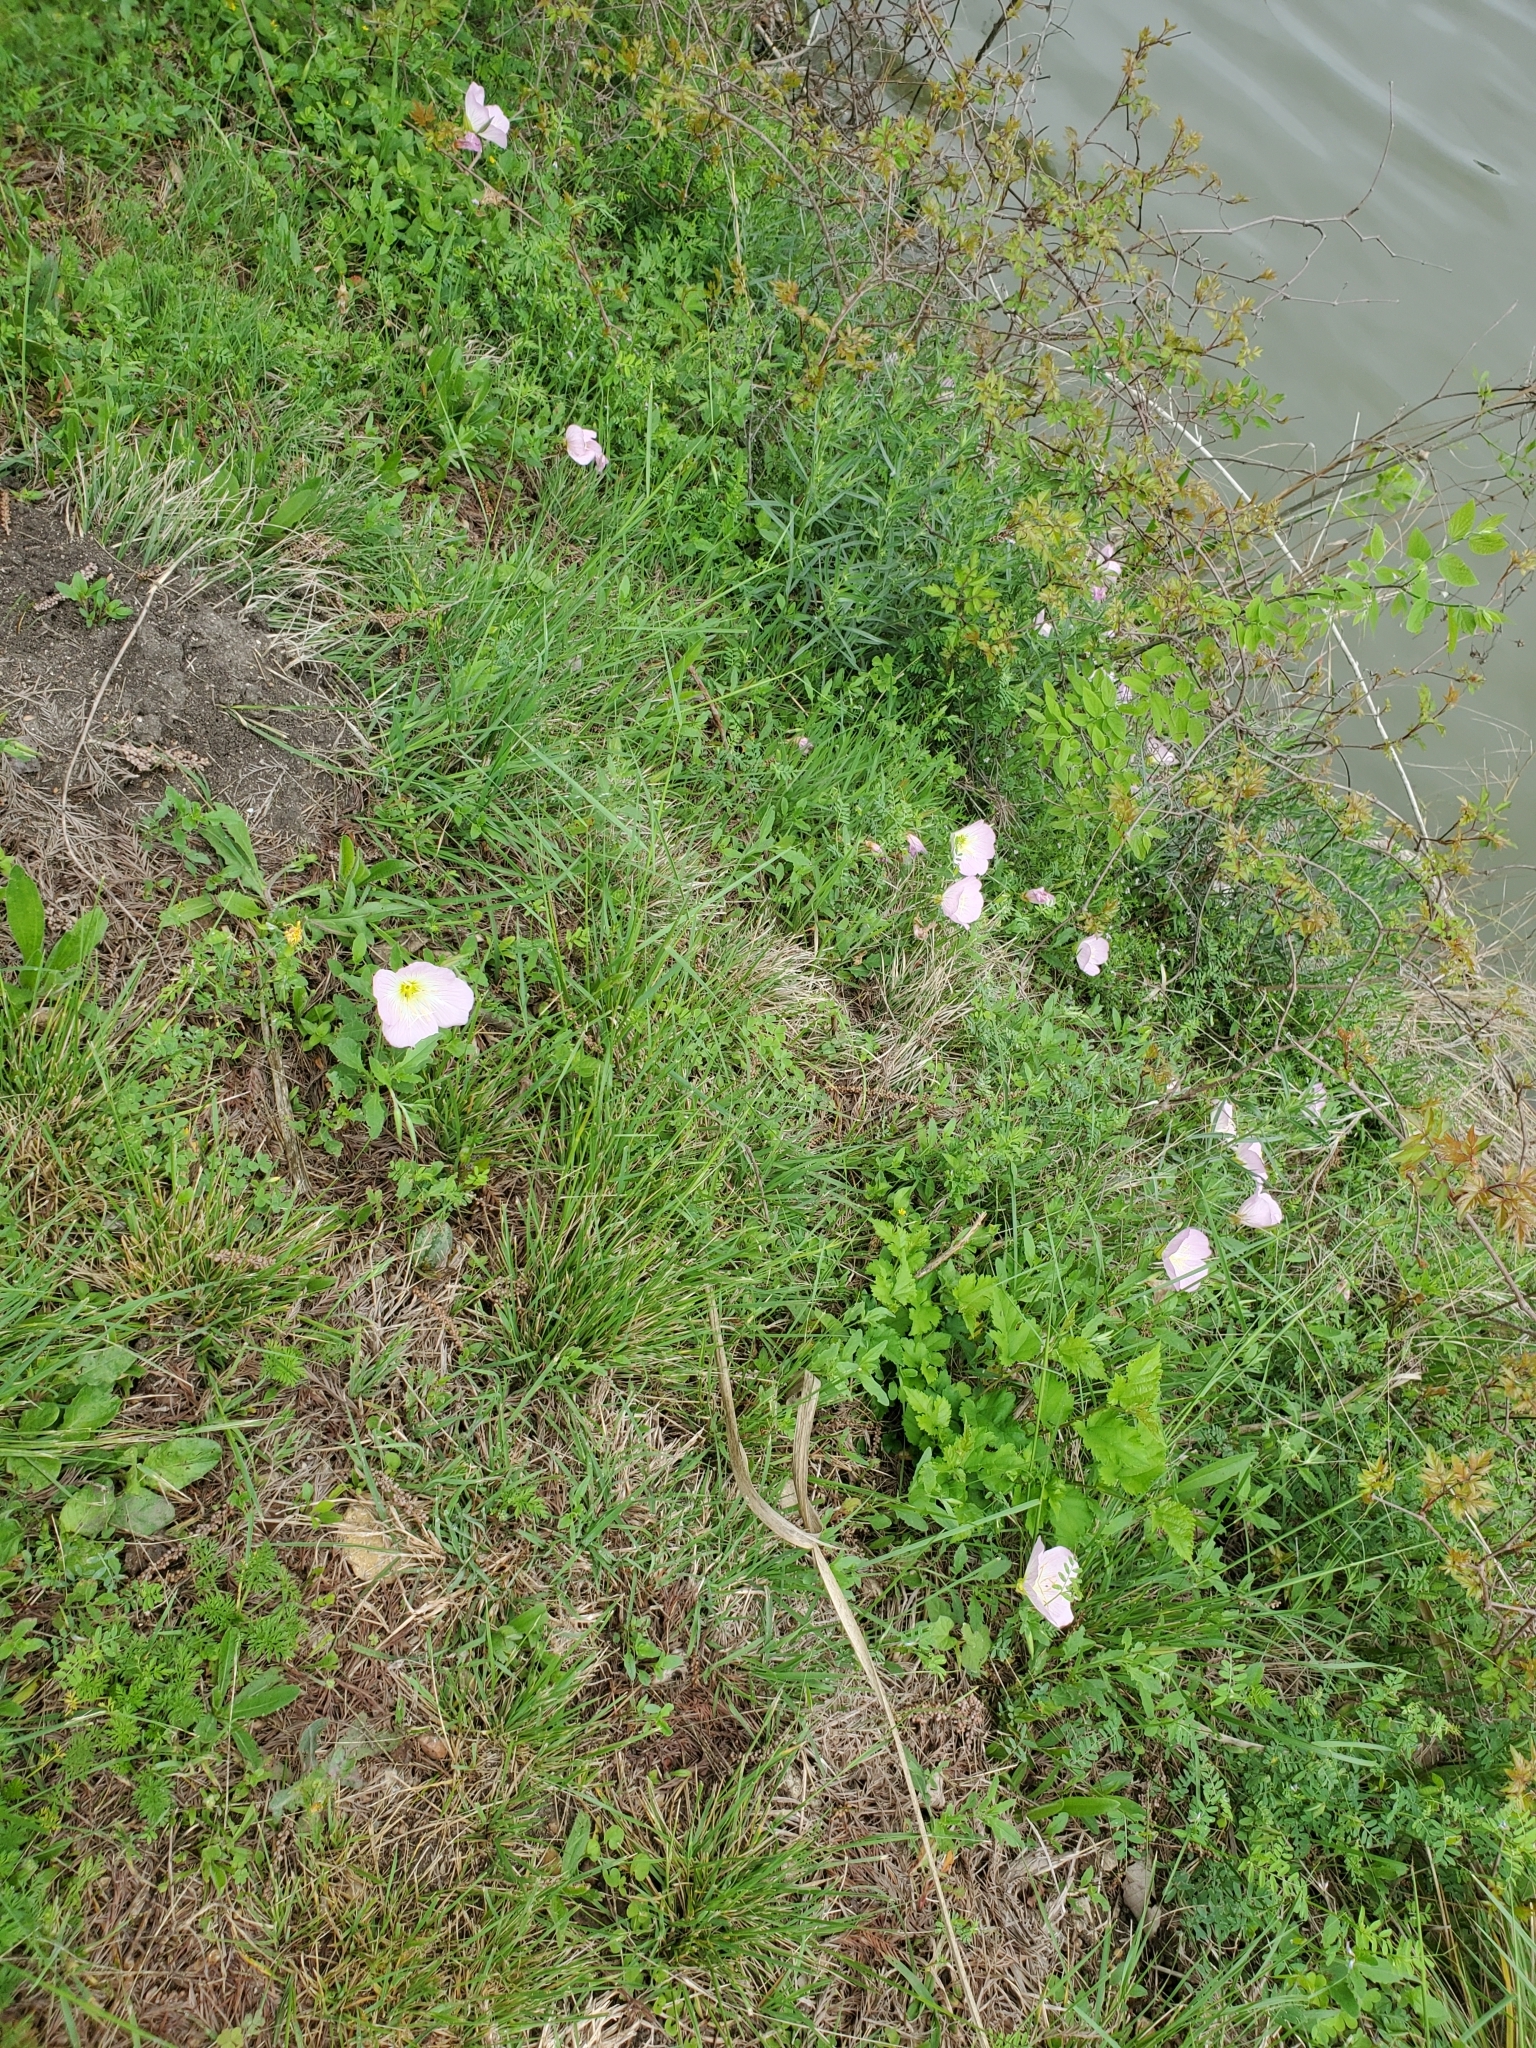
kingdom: Plantae
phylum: Tracheophyta
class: Magnoliopsida
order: Myrtales
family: Onagraceae
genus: Oenothera
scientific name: Oenothera speciosa
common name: White evening-primrose
